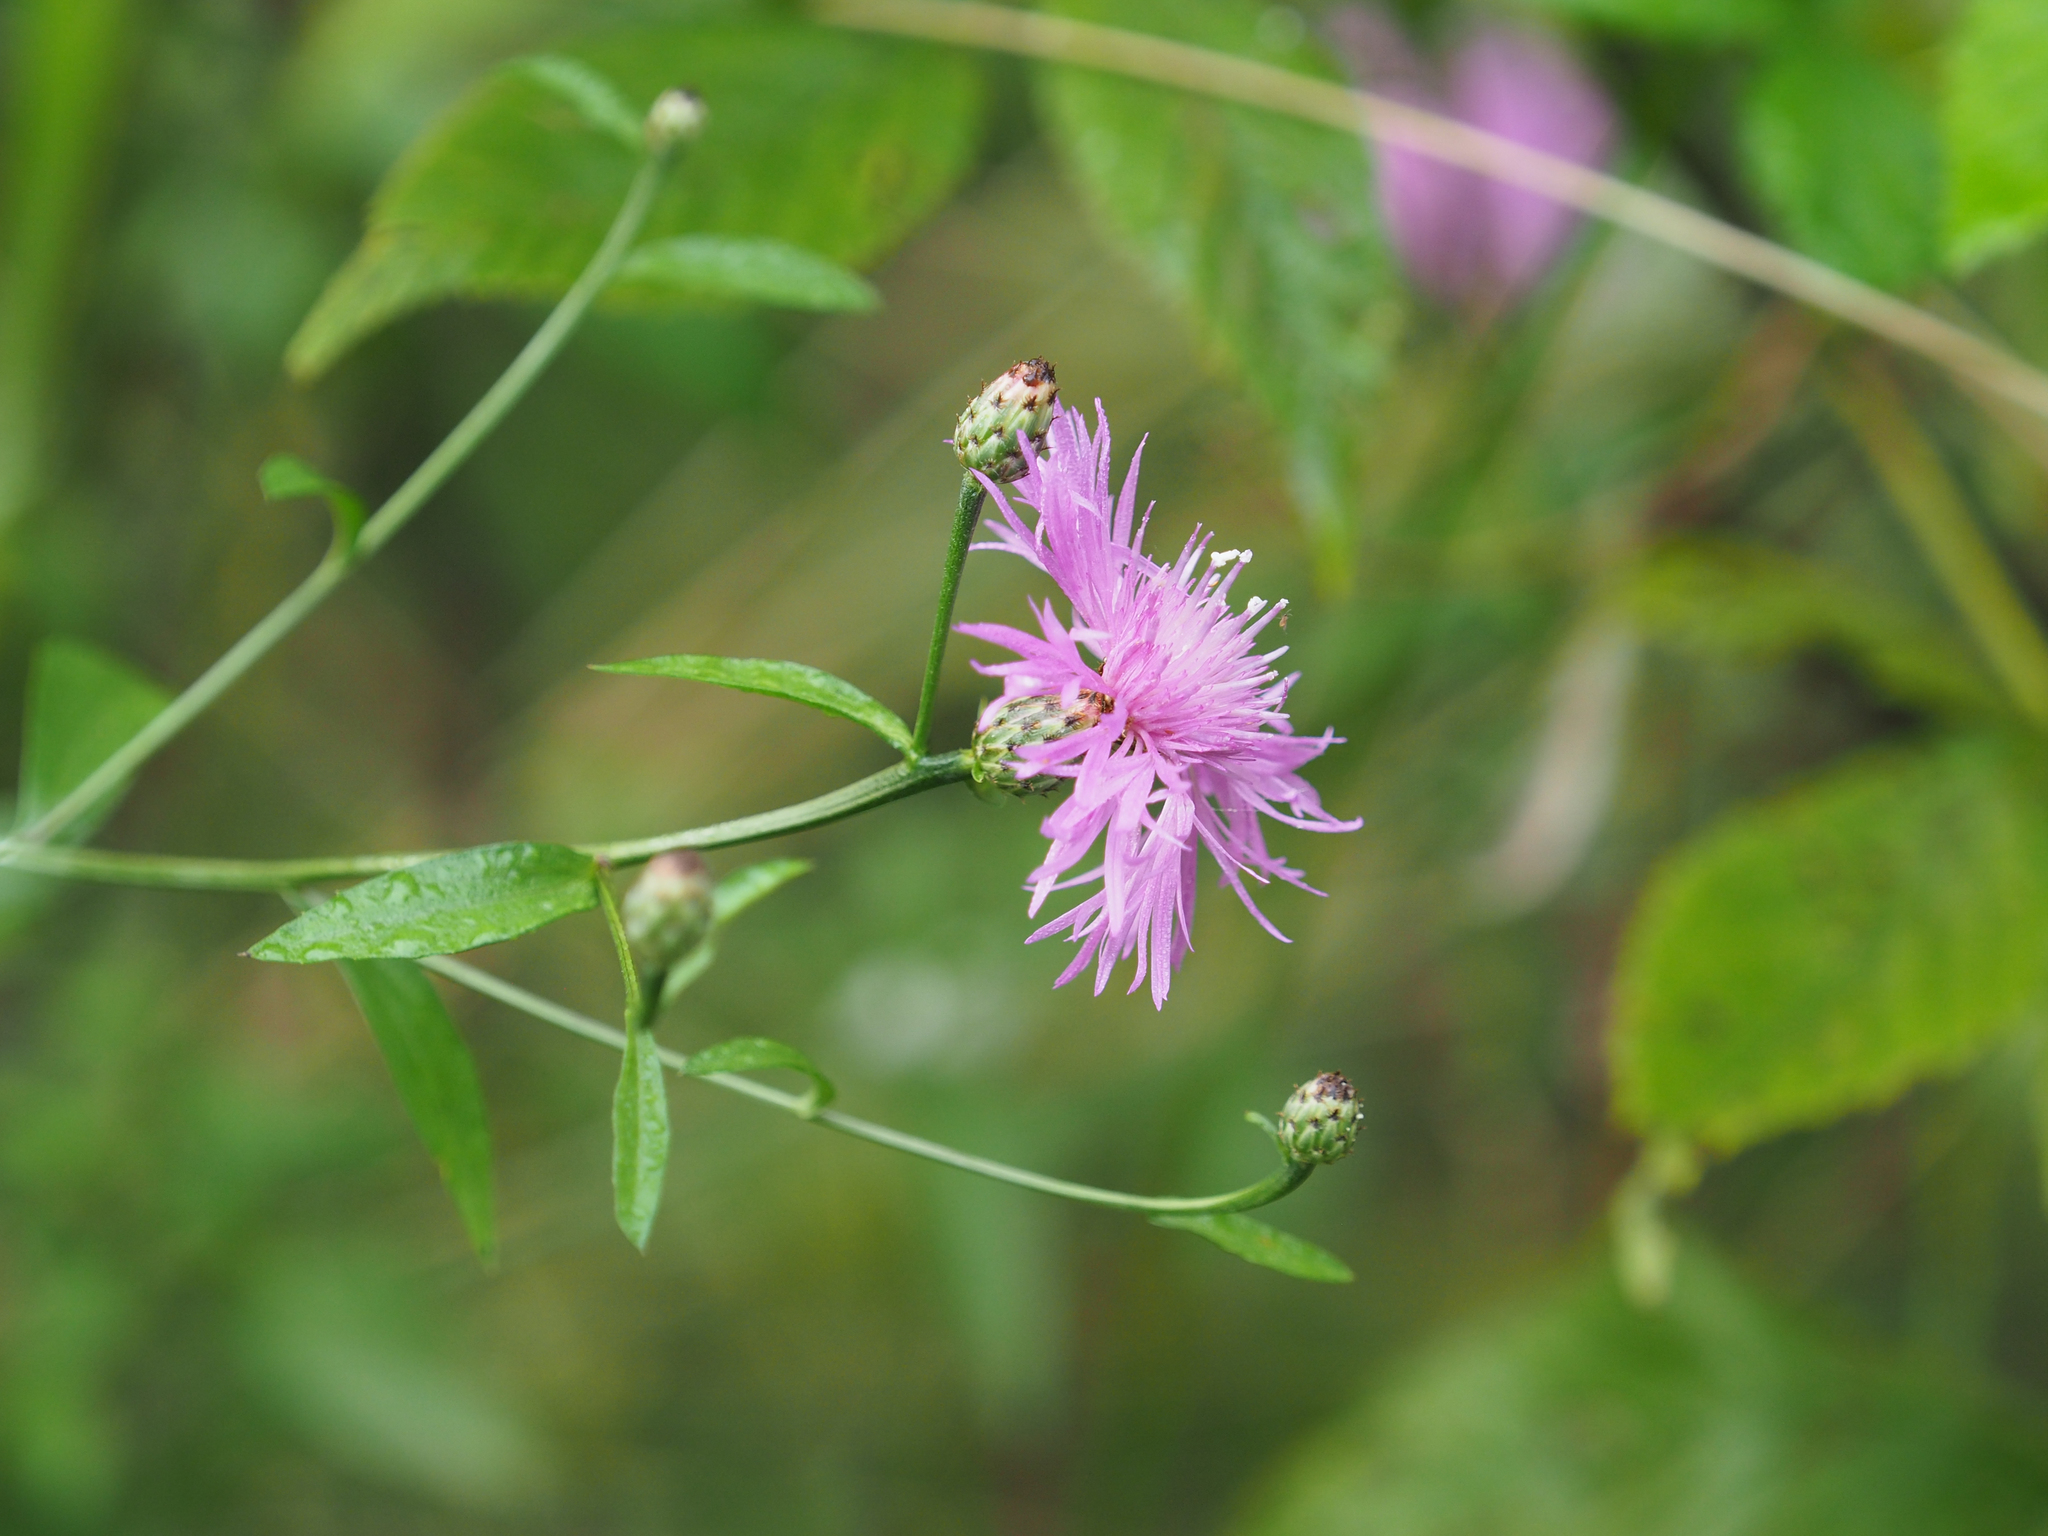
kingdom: Plantae
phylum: Tracheophyta
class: Magnoliopsida
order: Asterales
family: Asteraceae
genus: Centaurea
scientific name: Centaurea nigrescens
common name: Tyrol knapweed
